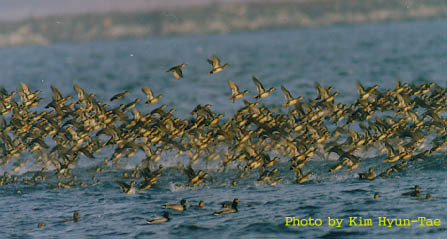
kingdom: Animalia
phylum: Chordata
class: Aves
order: Anseriformes
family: Anatidae
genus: Sibirionetta
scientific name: Sibirionetta formosa
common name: Baikal teal
